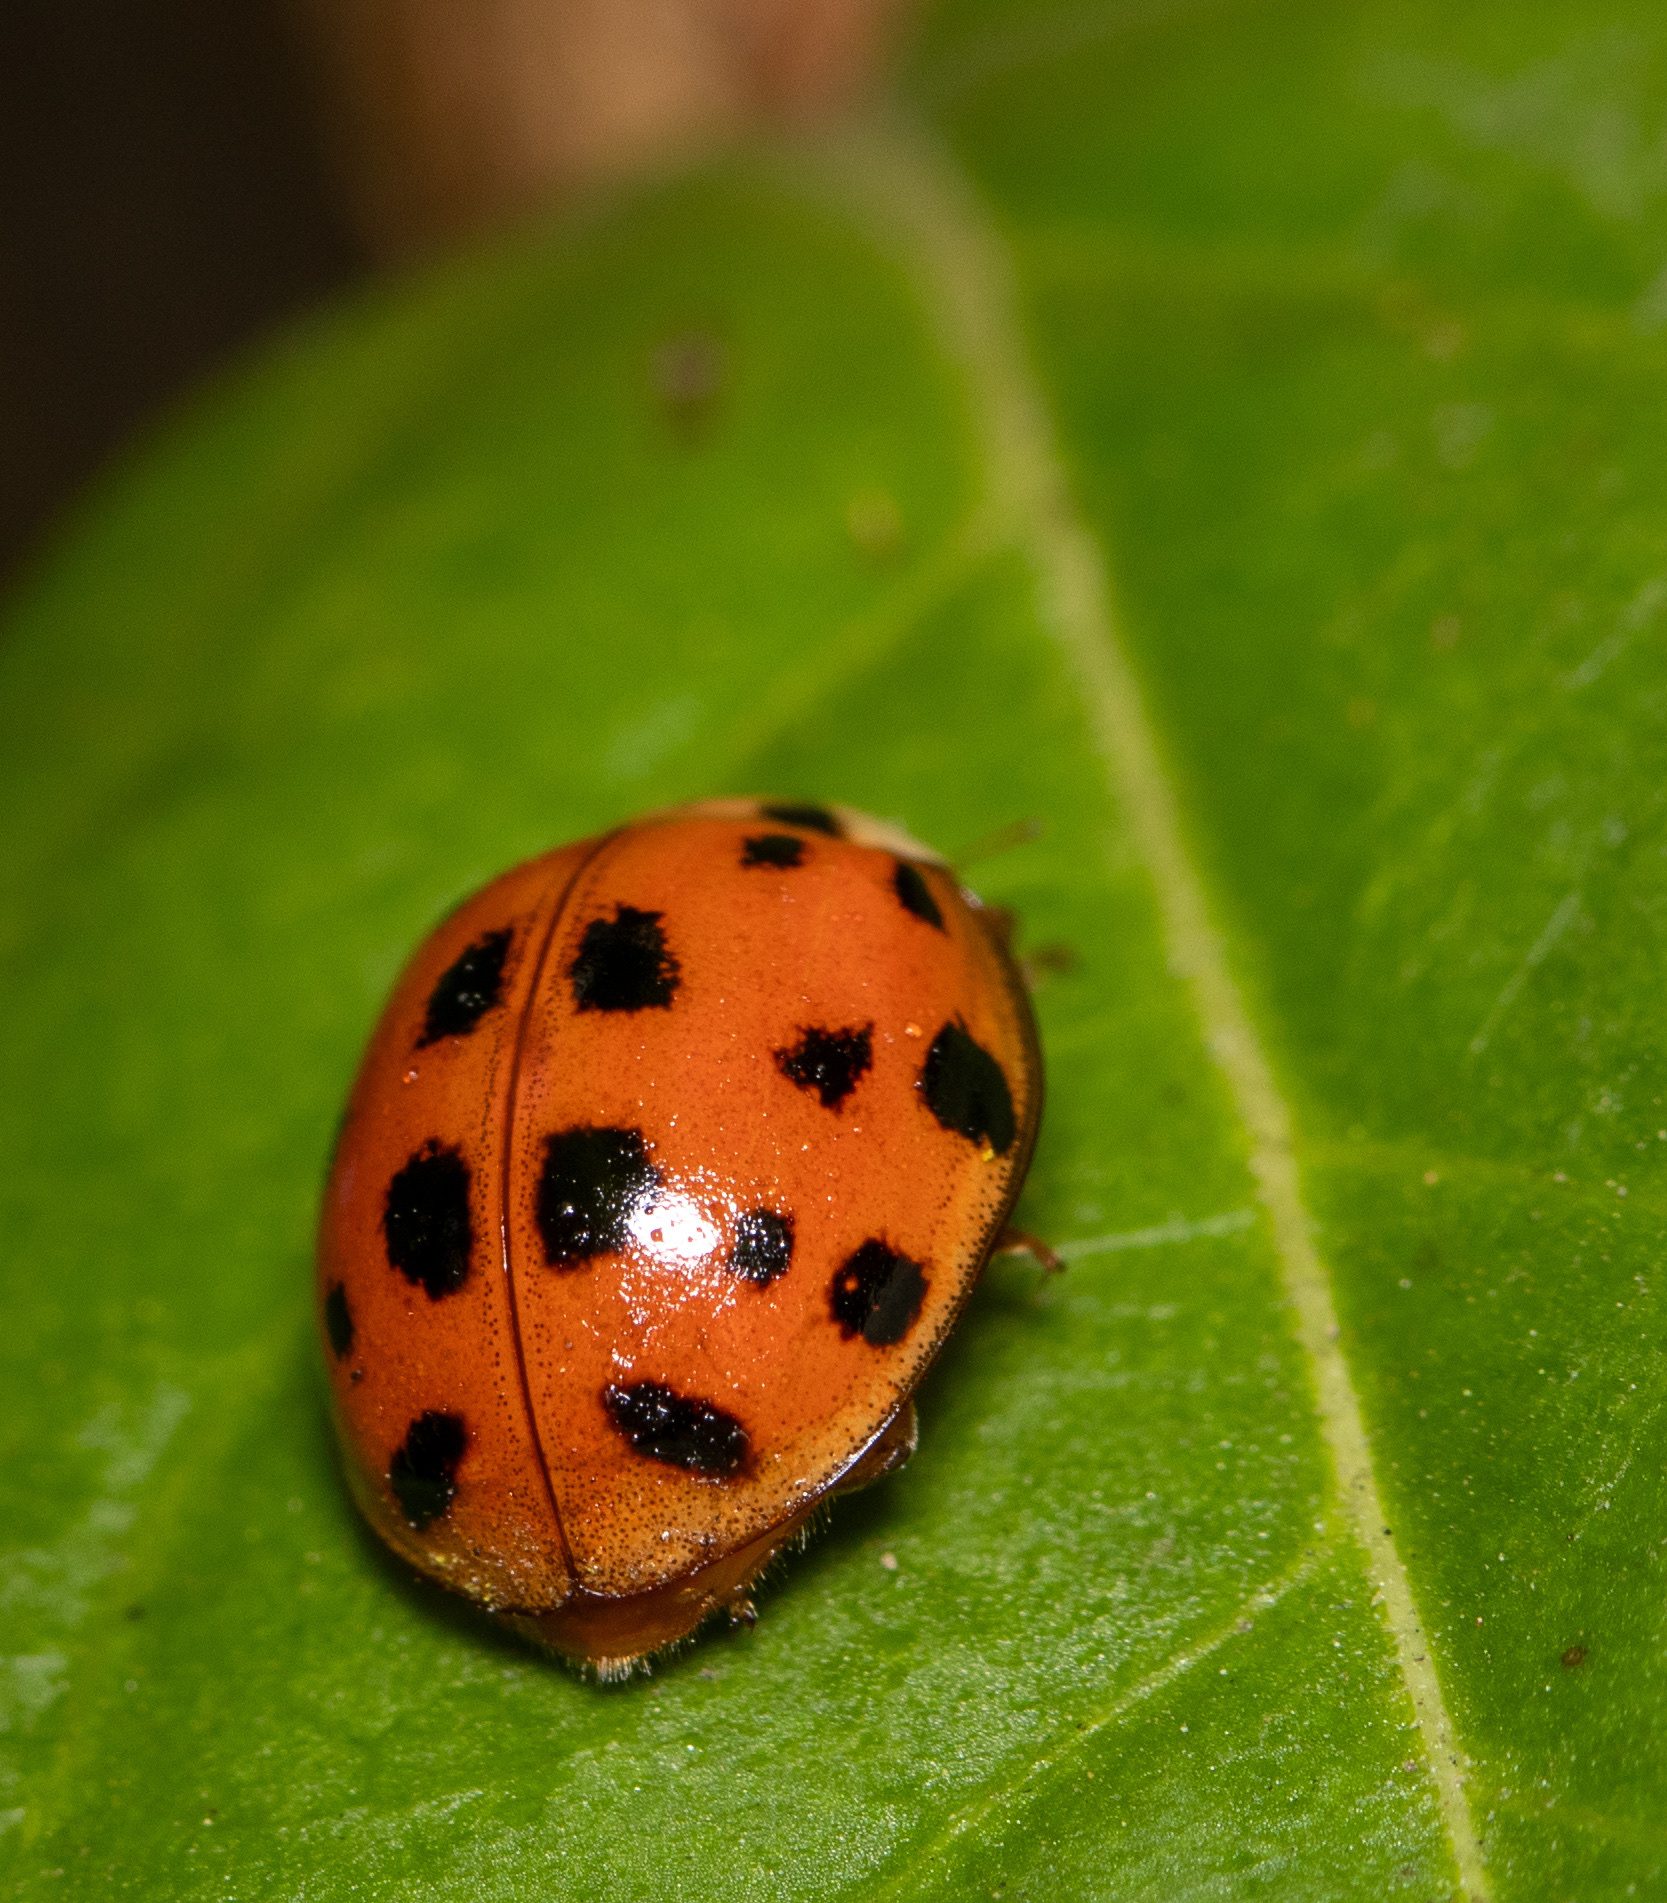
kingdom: Animalia
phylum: Arthropoda
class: Insecta
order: Coleoptera
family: Coccinellidae
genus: Harmonia
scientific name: Harmonia axyridis
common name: Harlequin ladybird
